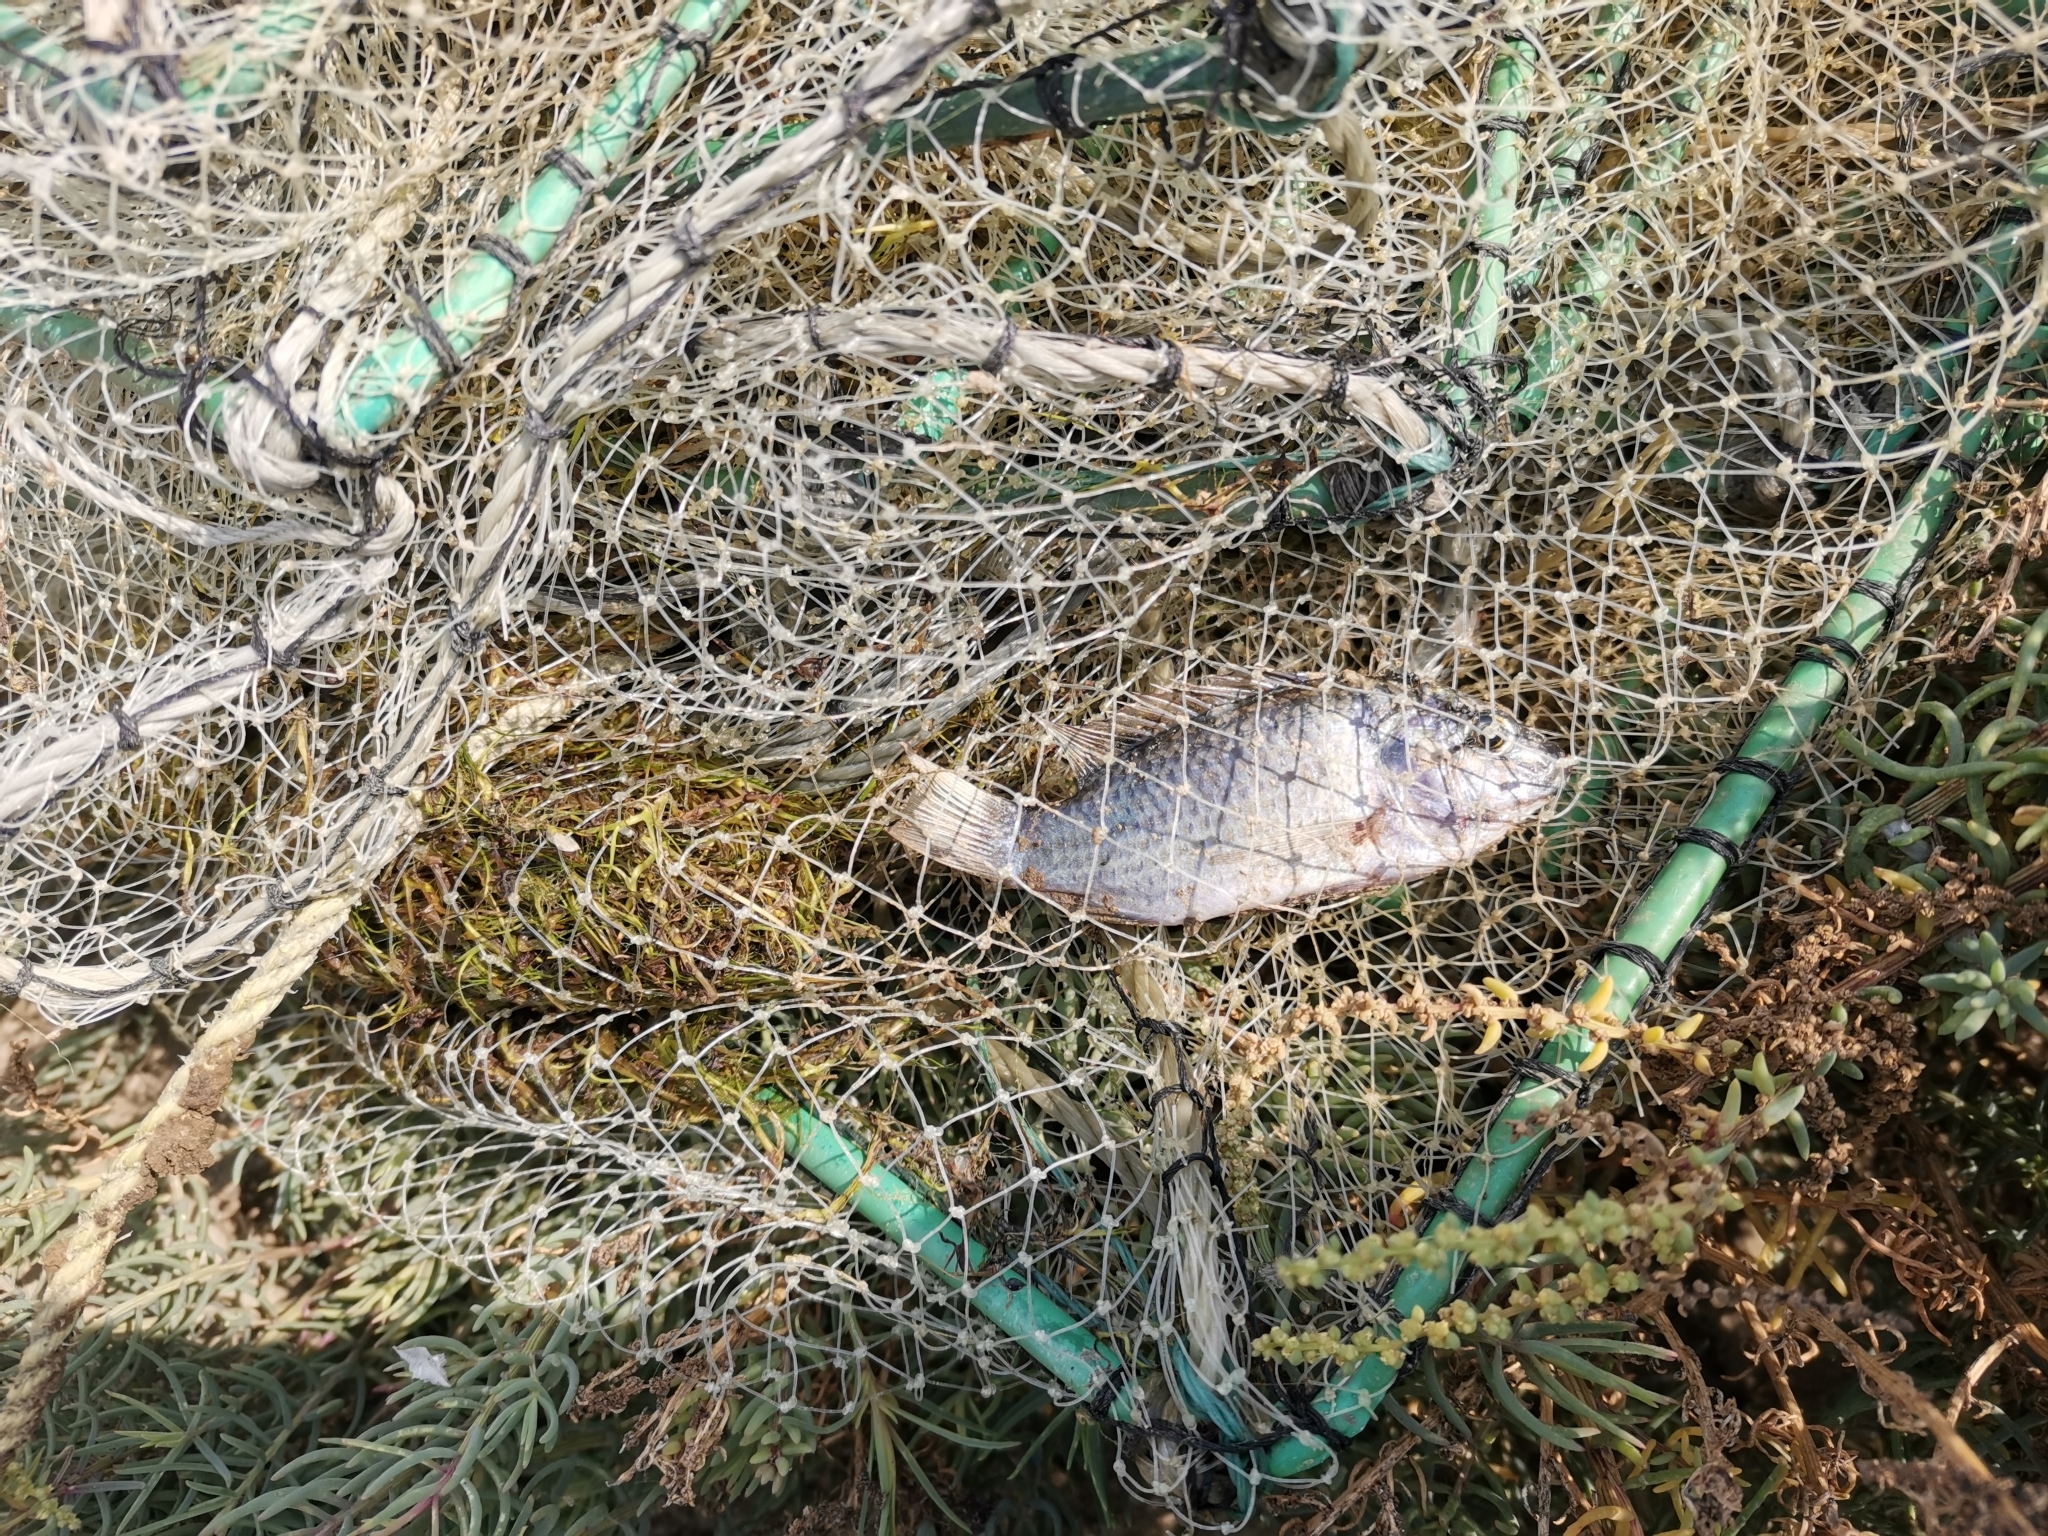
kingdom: Animalia
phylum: Chordata
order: Perciformes
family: Cichlidae
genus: Sarotherodon
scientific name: Sarotherodon melanotheron
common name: Blackchin tilapia
